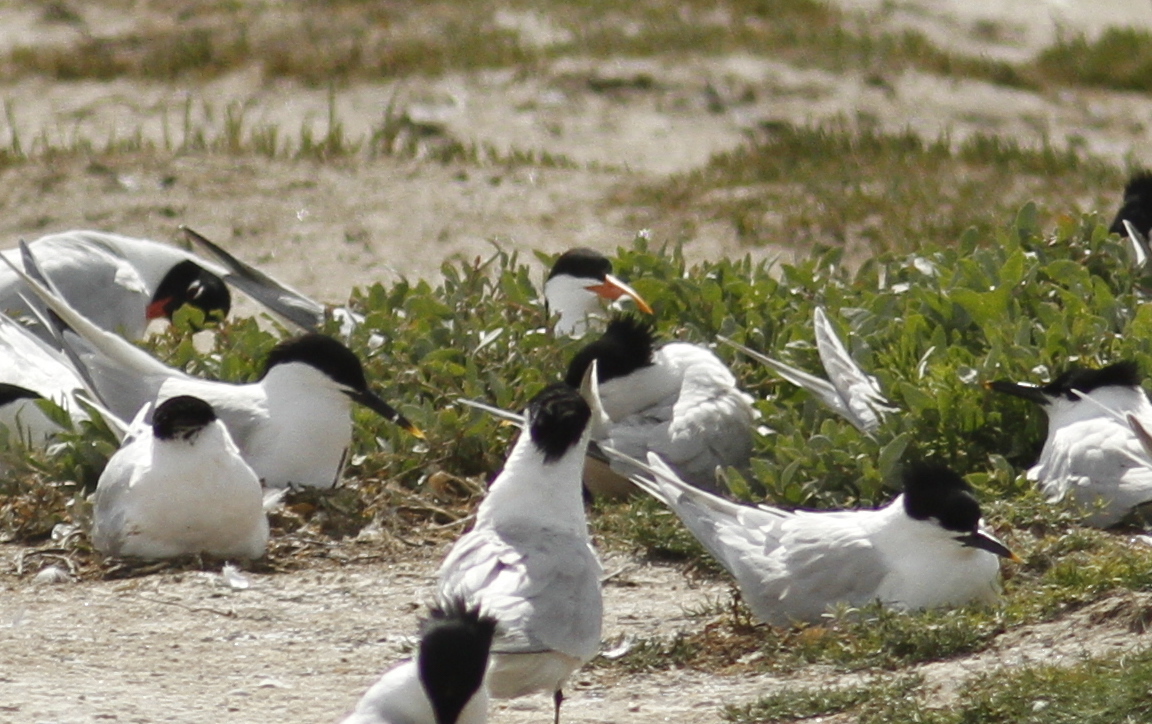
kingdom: Animalia
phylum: Chordata
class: Aves
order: Charadriiformes
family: Laridae
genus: Thalasseus
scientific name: Thalasseus elegans
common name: Elegant tern
